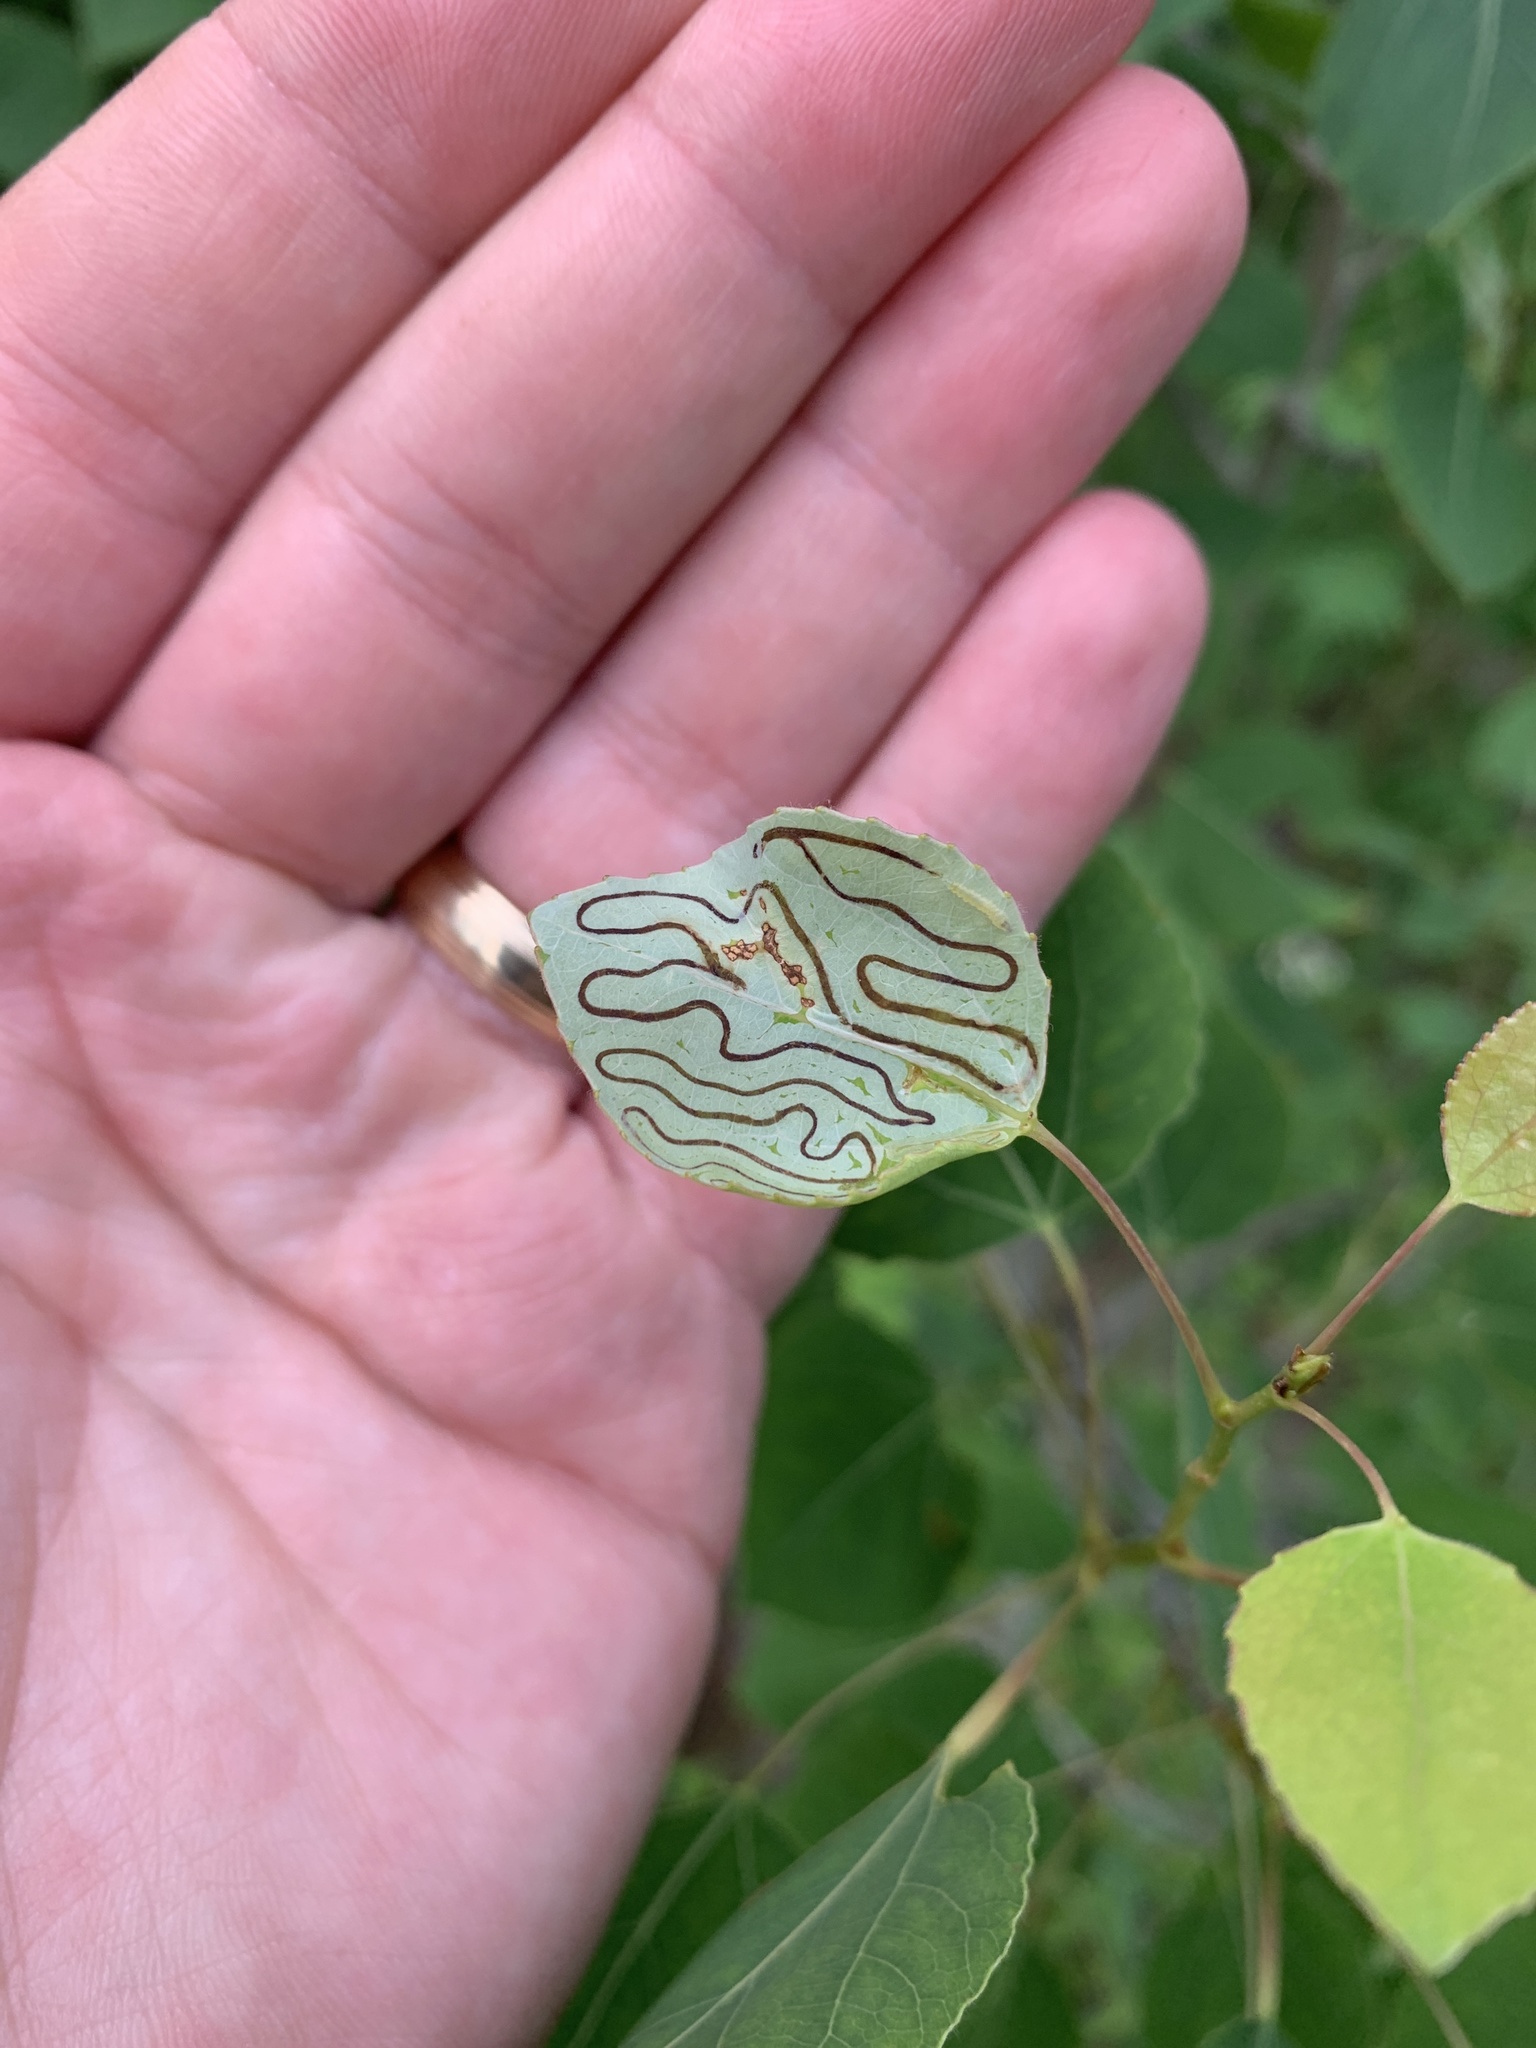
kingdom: Animalia
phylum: Arthropoda
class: Insecta
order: Lepidoptera
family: Gracillariidae
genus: Phyllocnistis
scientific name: Phyllocnistis populiella
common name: Aspen serpentine leafminer moth
